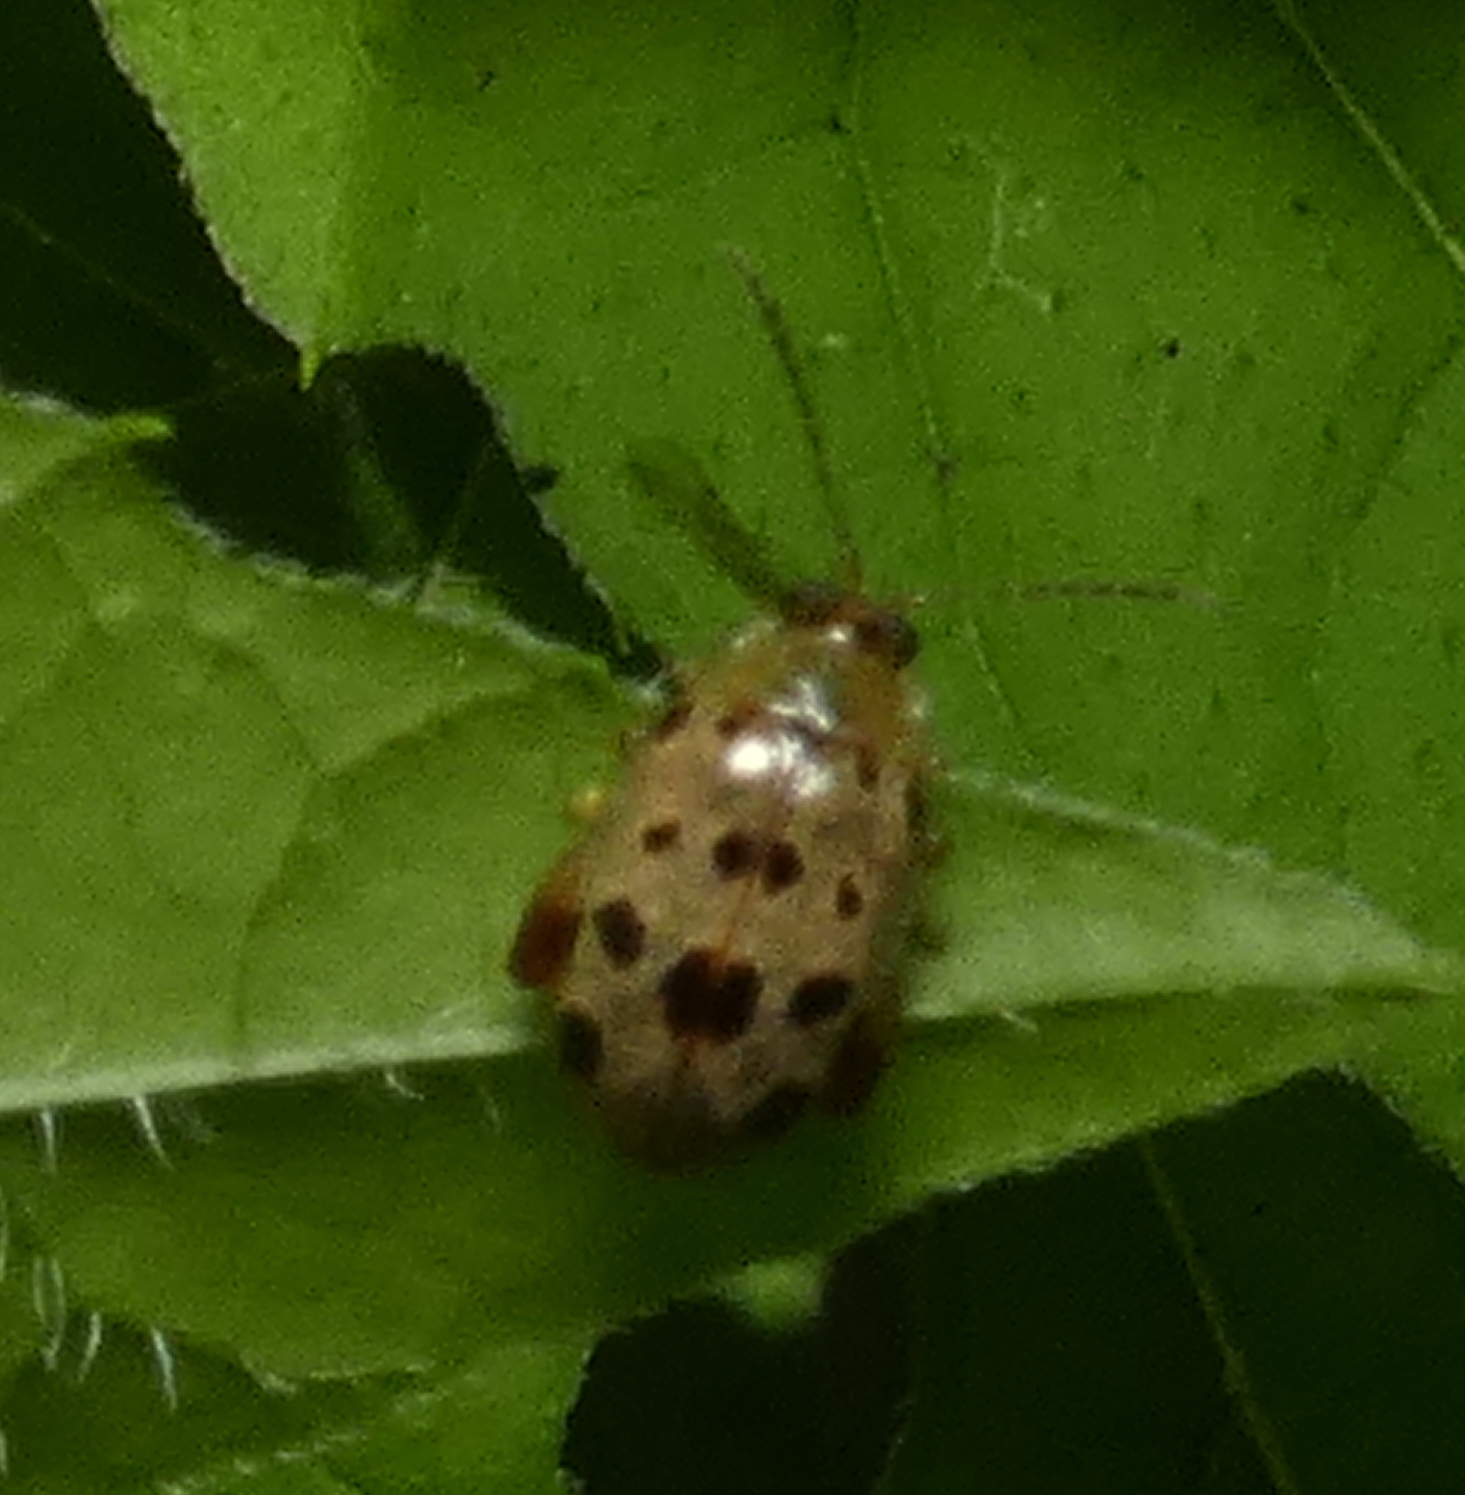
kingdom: Animalia
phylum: Arthropoda
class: Insecta
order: Coleoptera
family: Chrysomelidae
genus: Alagoasa
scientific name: Alagoasa
